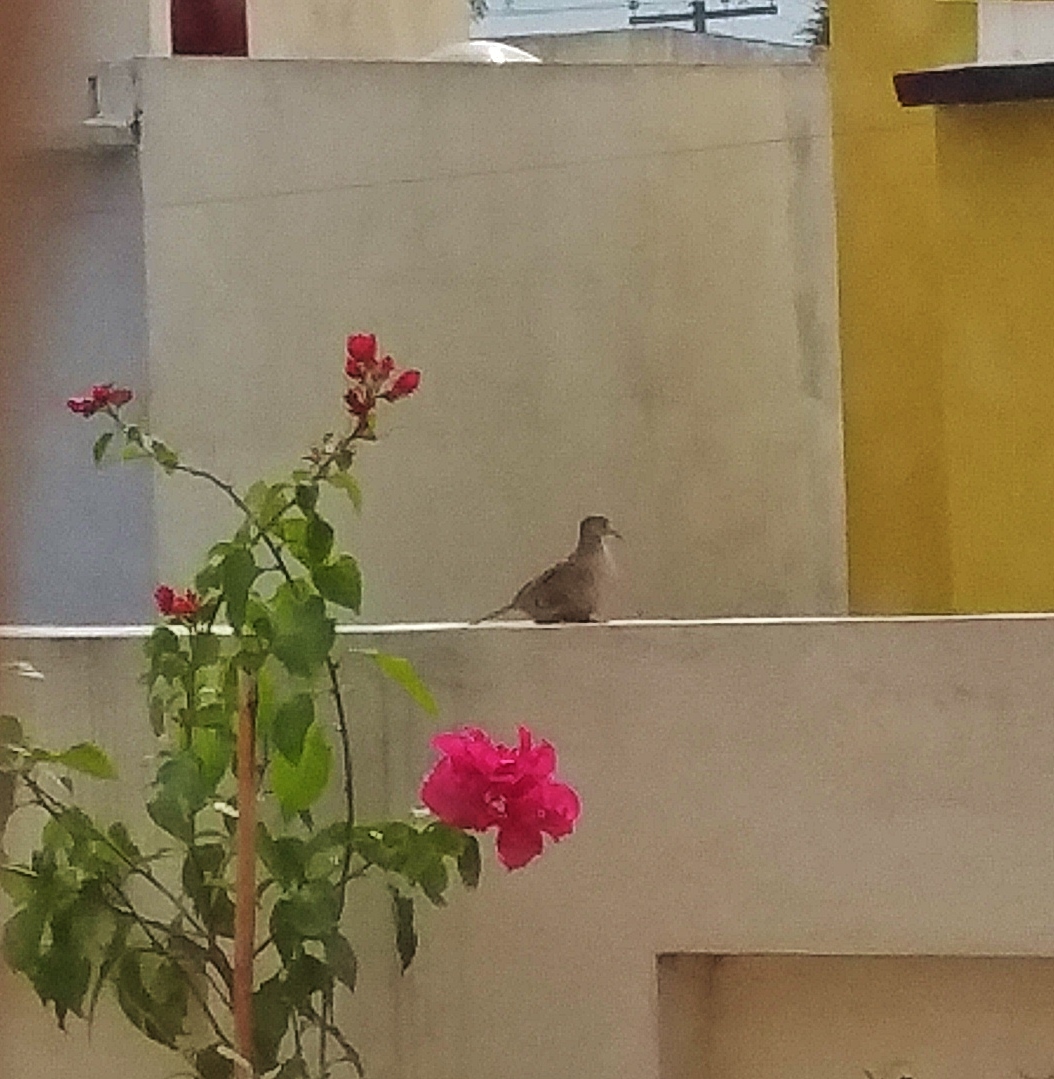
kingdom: Animalia
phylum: Chordata
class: Aves
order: Columbiformes
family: Columbidae
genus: Columbina
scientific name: Columbina inca
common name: Inca dove
